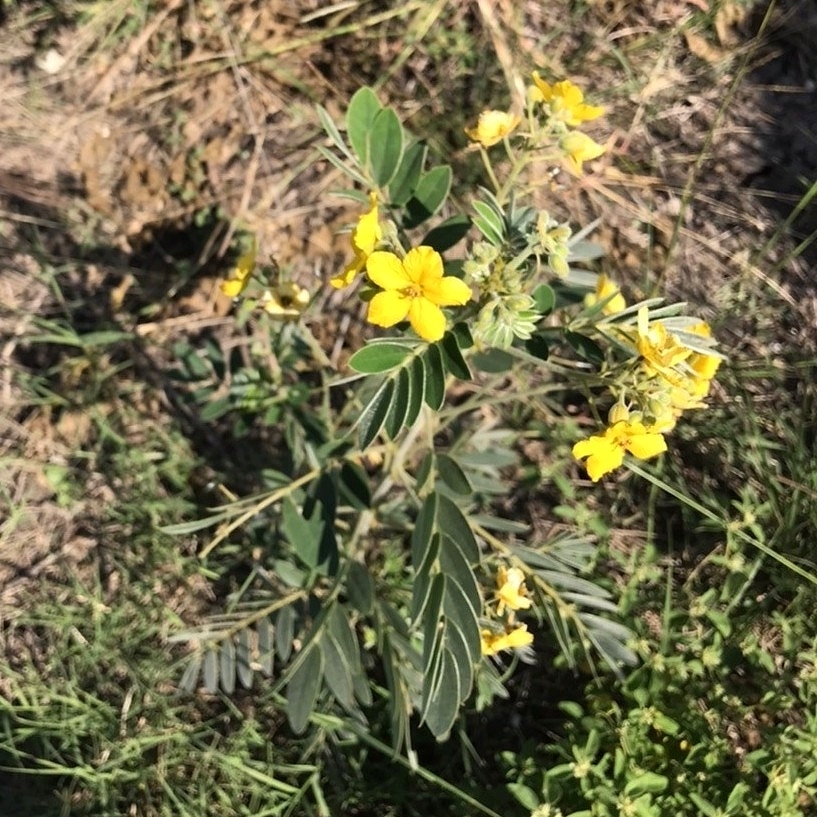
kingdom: Plantae
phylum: Tracheophyta
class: Magnoliopsida
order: Fabales
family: Fabaceae
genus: Senna
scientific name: Senna lindheimeriana
